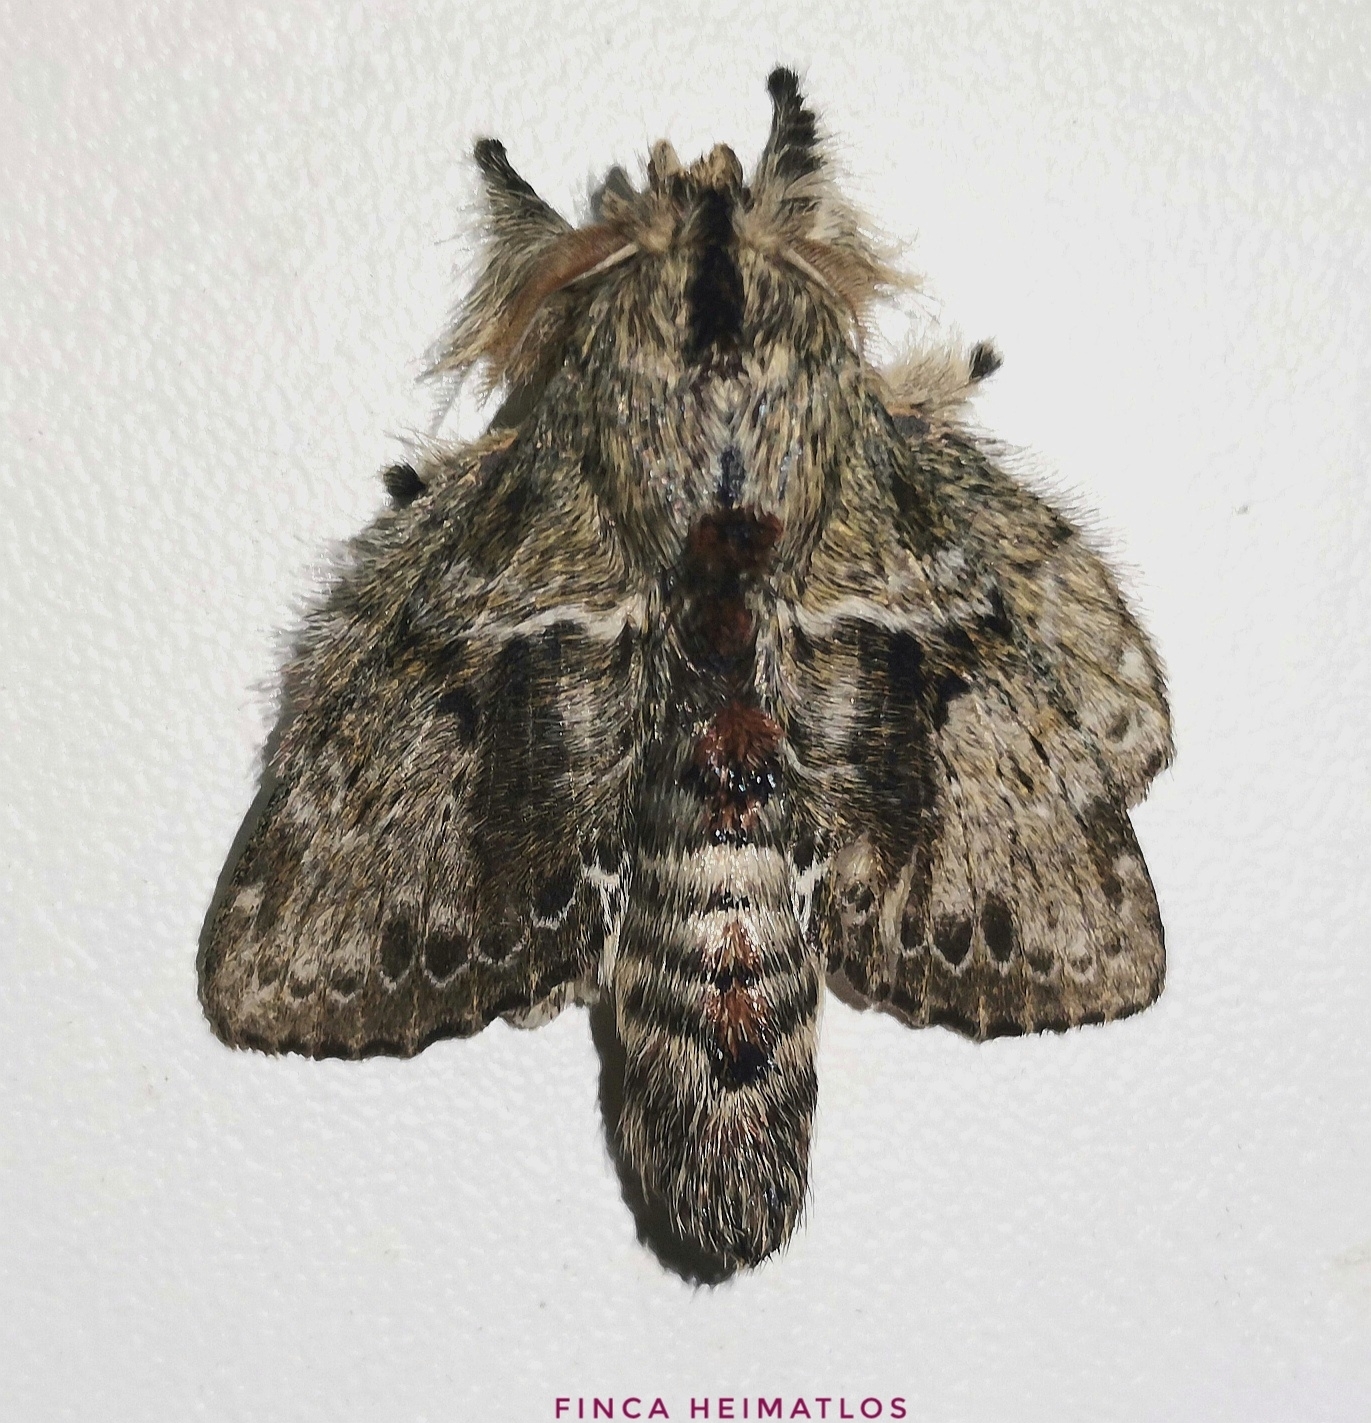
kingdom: Animalia
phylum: Arthropoda
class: Insecta
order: Lepidoptera
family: Lasiocampidae
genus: Euglyphis
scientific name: Euglyphis submarginalis
